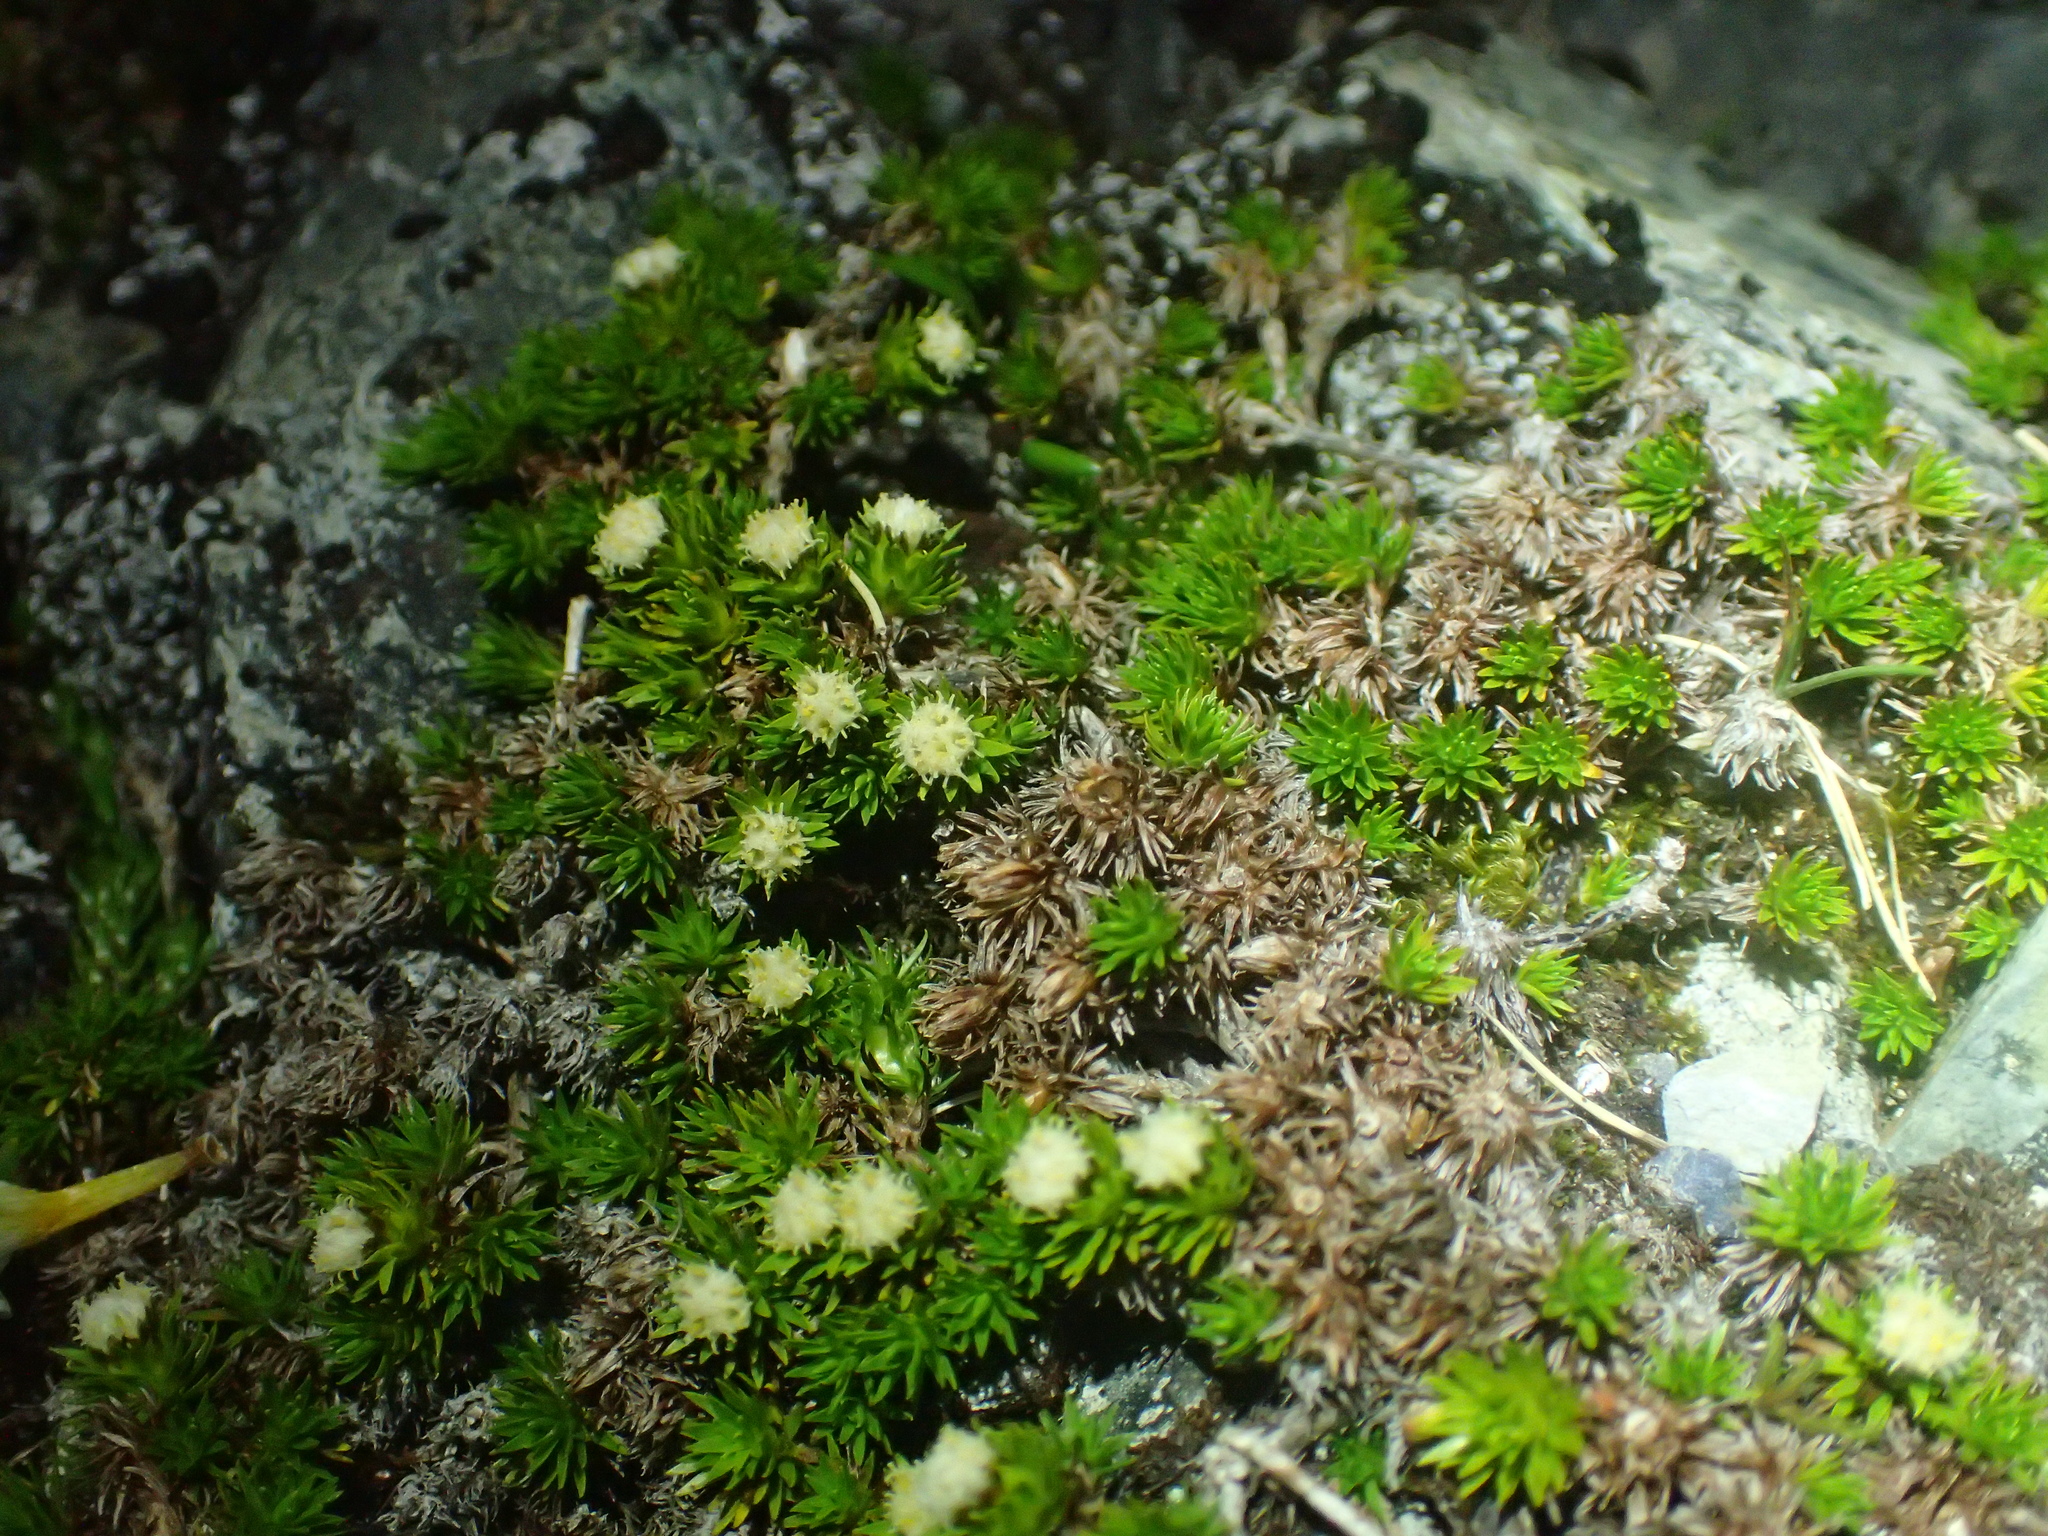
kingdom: Plantae
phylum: Tracheophyta
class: Magnoliopsida
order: Asterales
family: Asteraceae
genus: Raoulia
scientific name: Raoulia glabra
